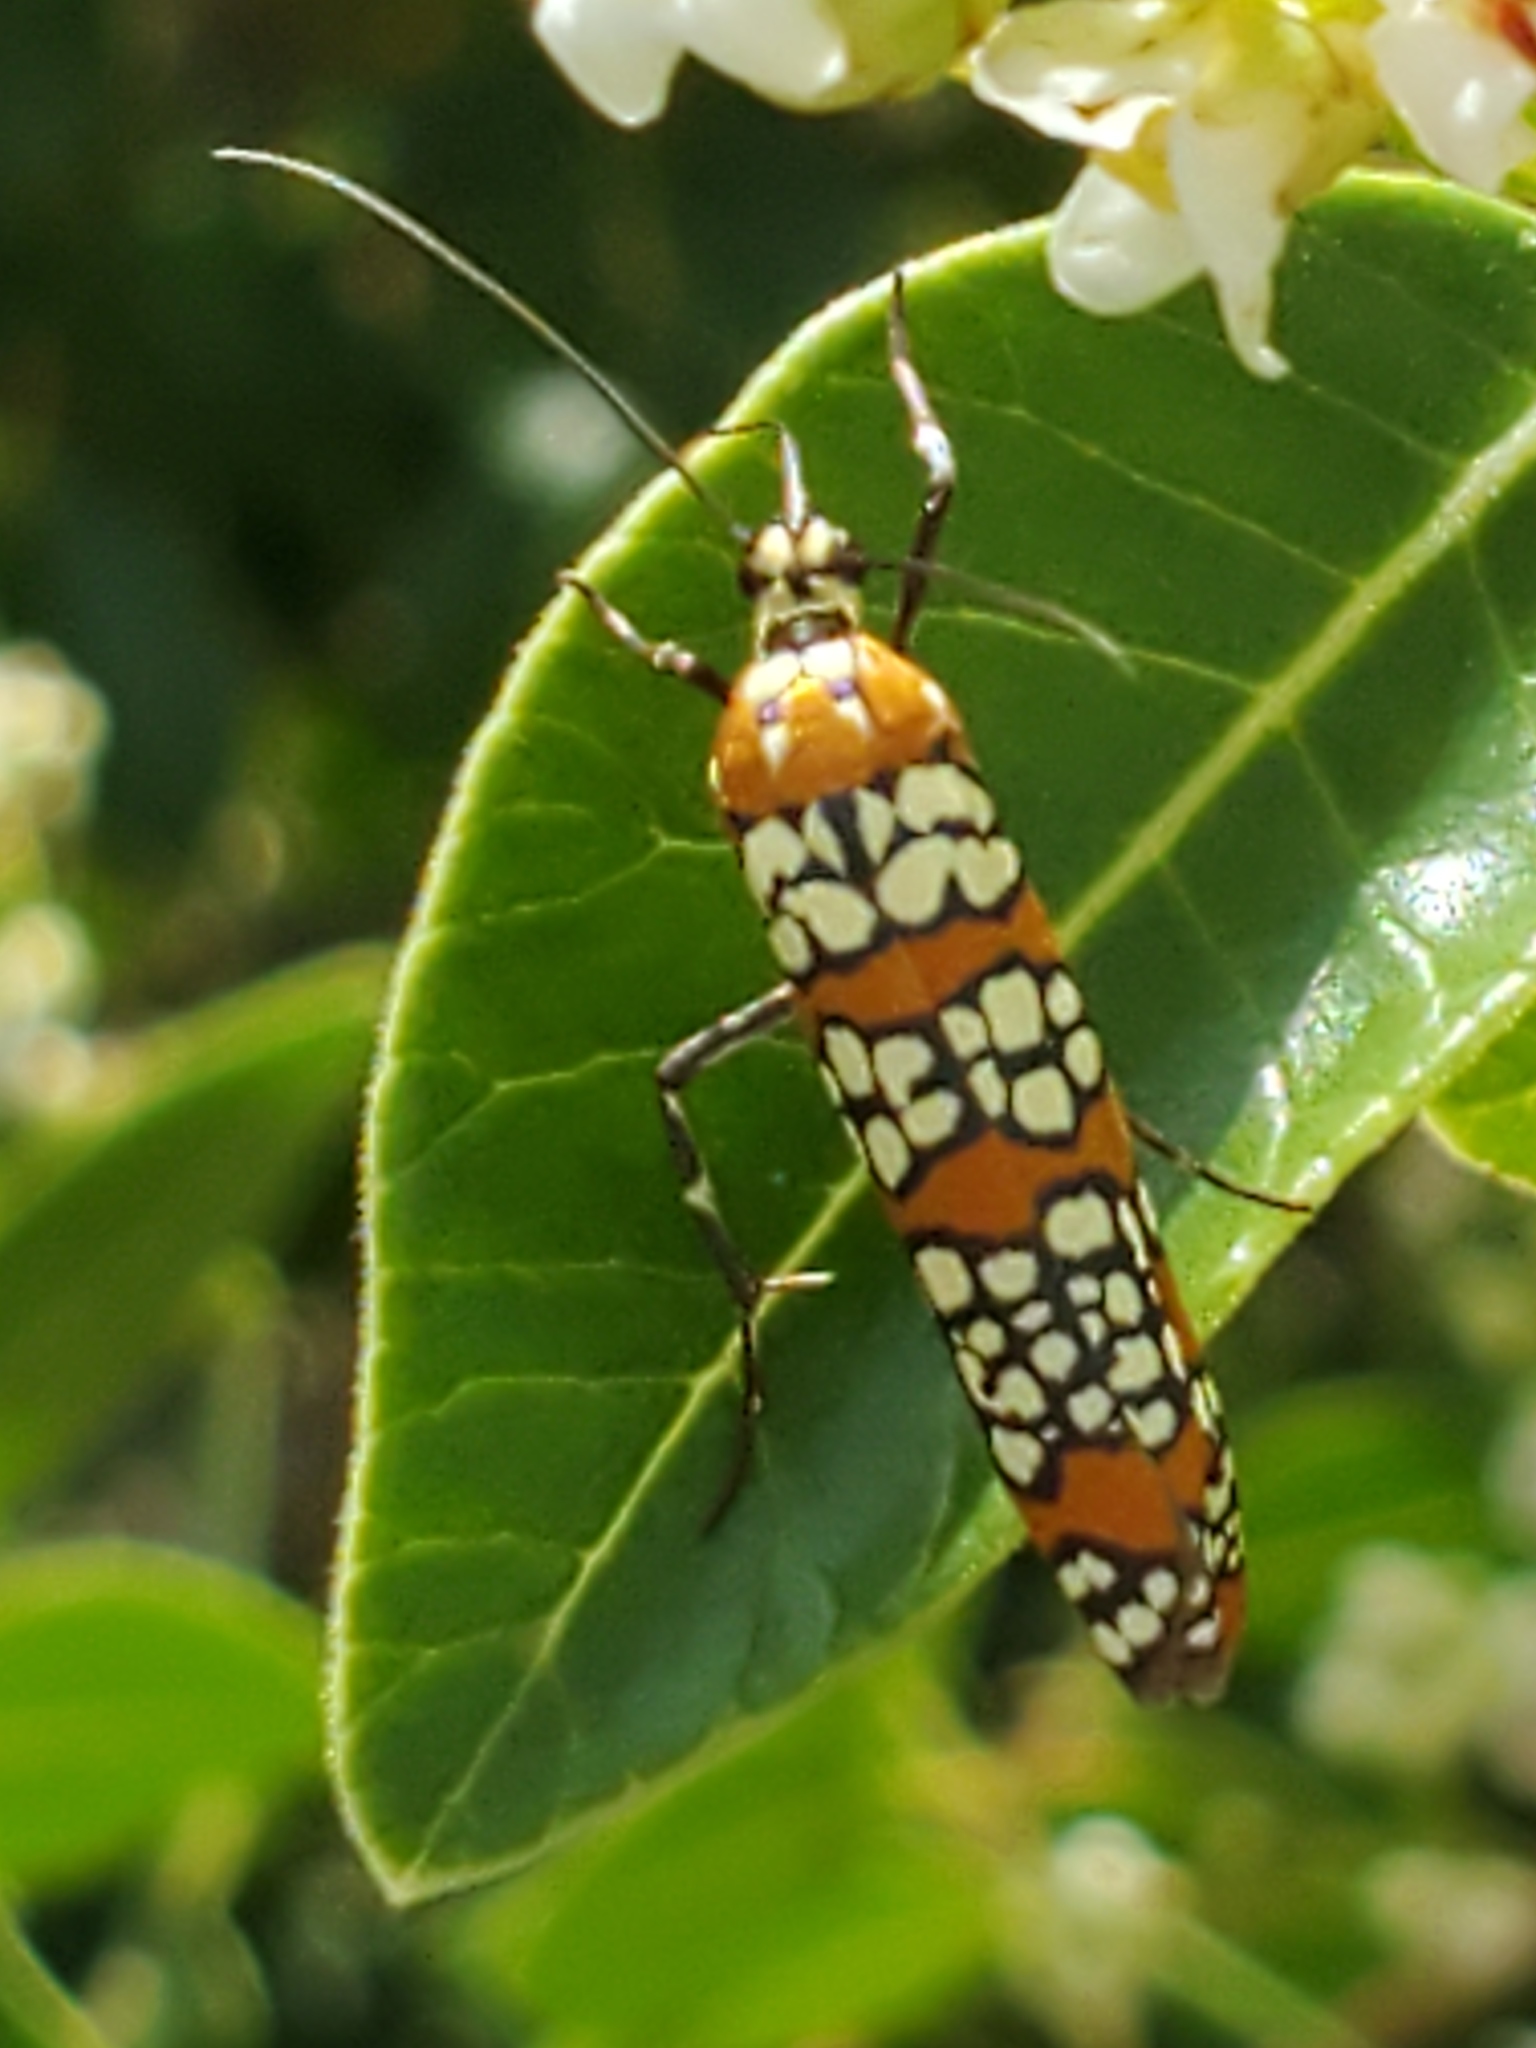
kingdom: Animalia
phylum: Arthropoda
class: Insecta
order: Lepidoptera
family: Attevidae
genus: Atteva
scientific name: Atteva punctella
